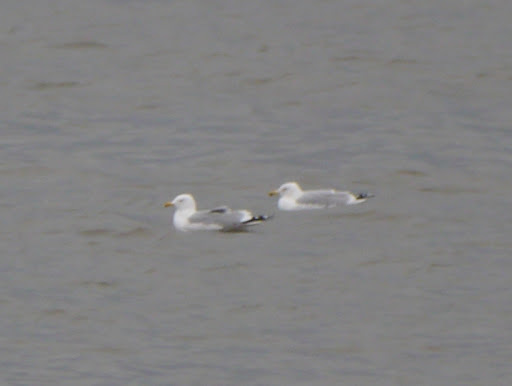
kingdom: Animalia
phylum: Chordata
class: Aves
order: Charadriiformes
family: Laridae
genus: Larus
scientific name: Larus argentatus
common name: Herring gull
